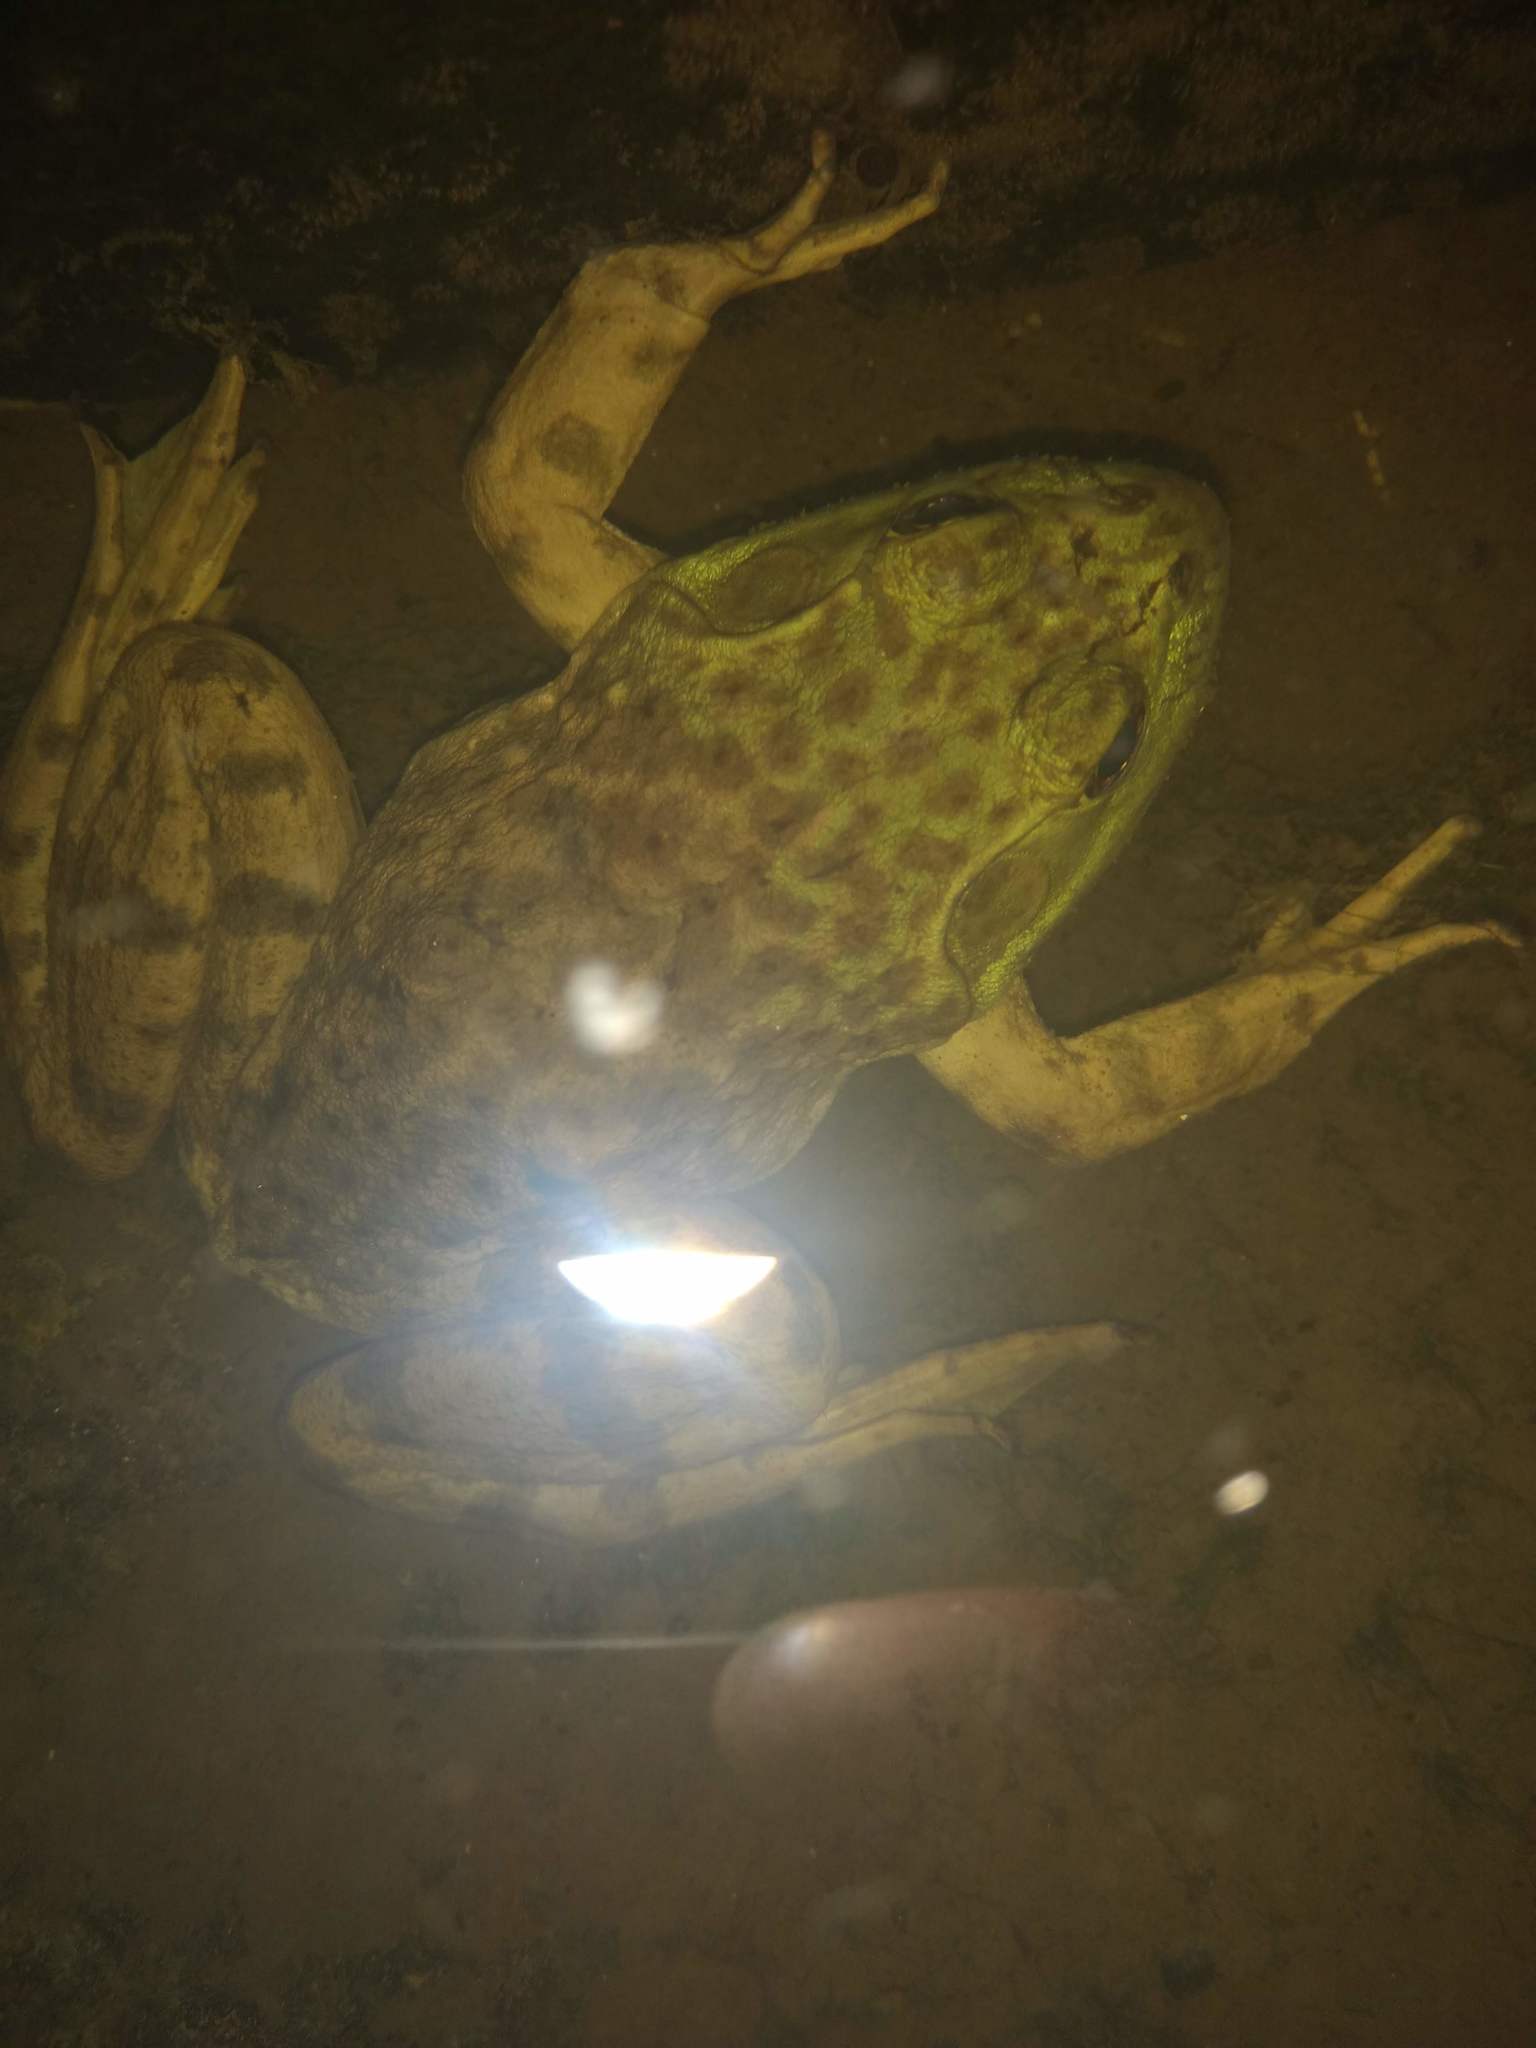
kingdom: Animalia
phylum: Chordata
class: Amphibia
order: Anura
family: Ranidae
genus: Lithobates
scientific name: Lithobates catesbeianus
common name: American bullfrog
